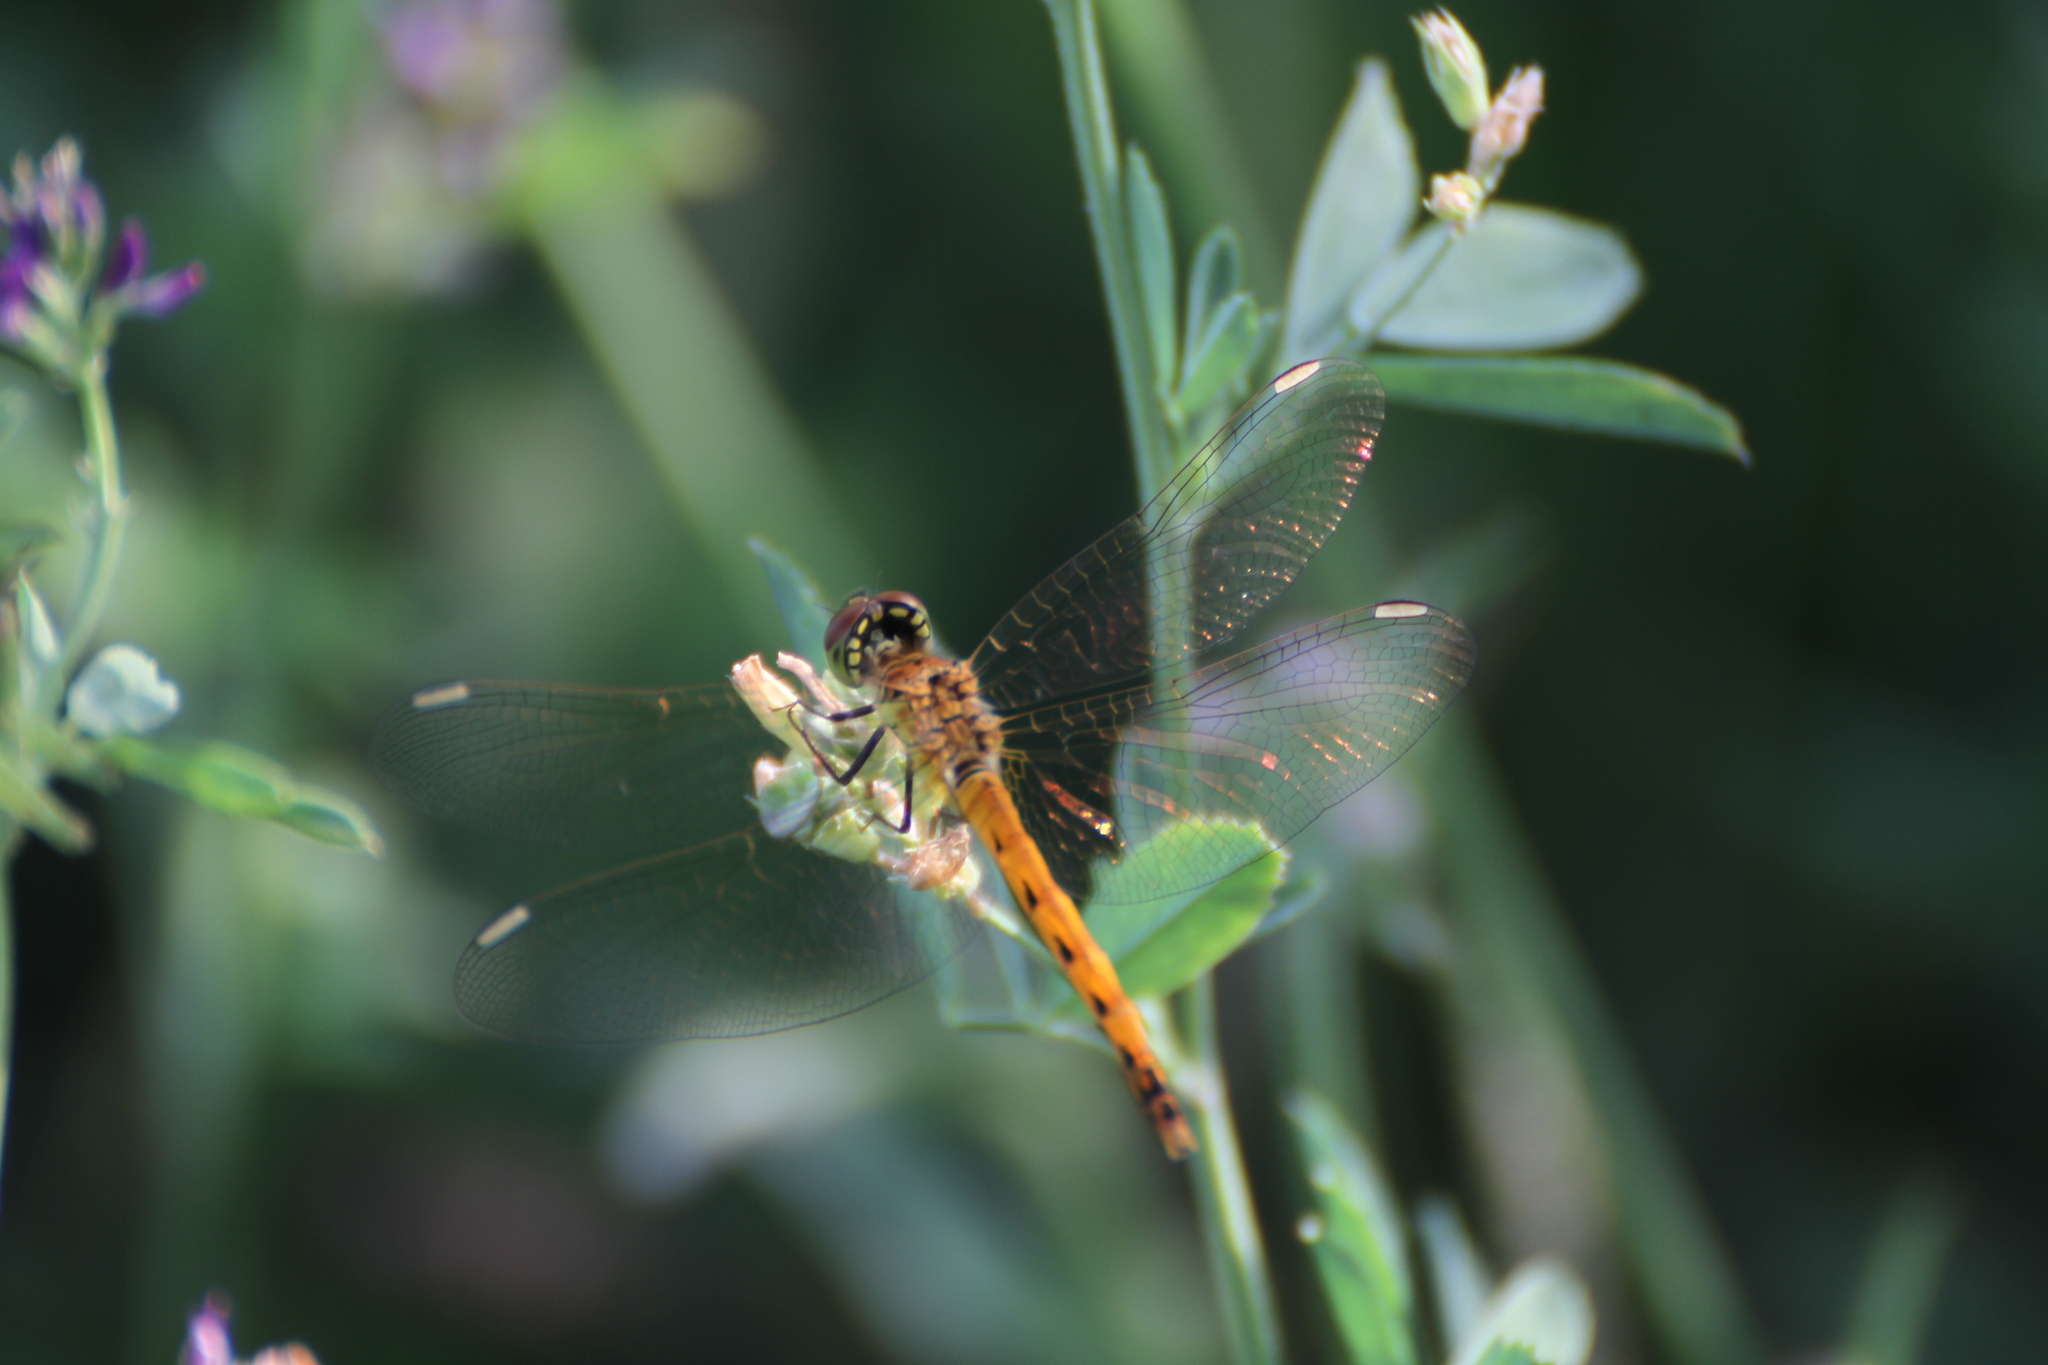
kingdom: Animalia
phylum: Arthropoda
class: Insecta
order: Odonata
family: Libellulidae
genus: Sympetrum
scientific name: Sympetrum depressiusculum
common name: Spotted darter
